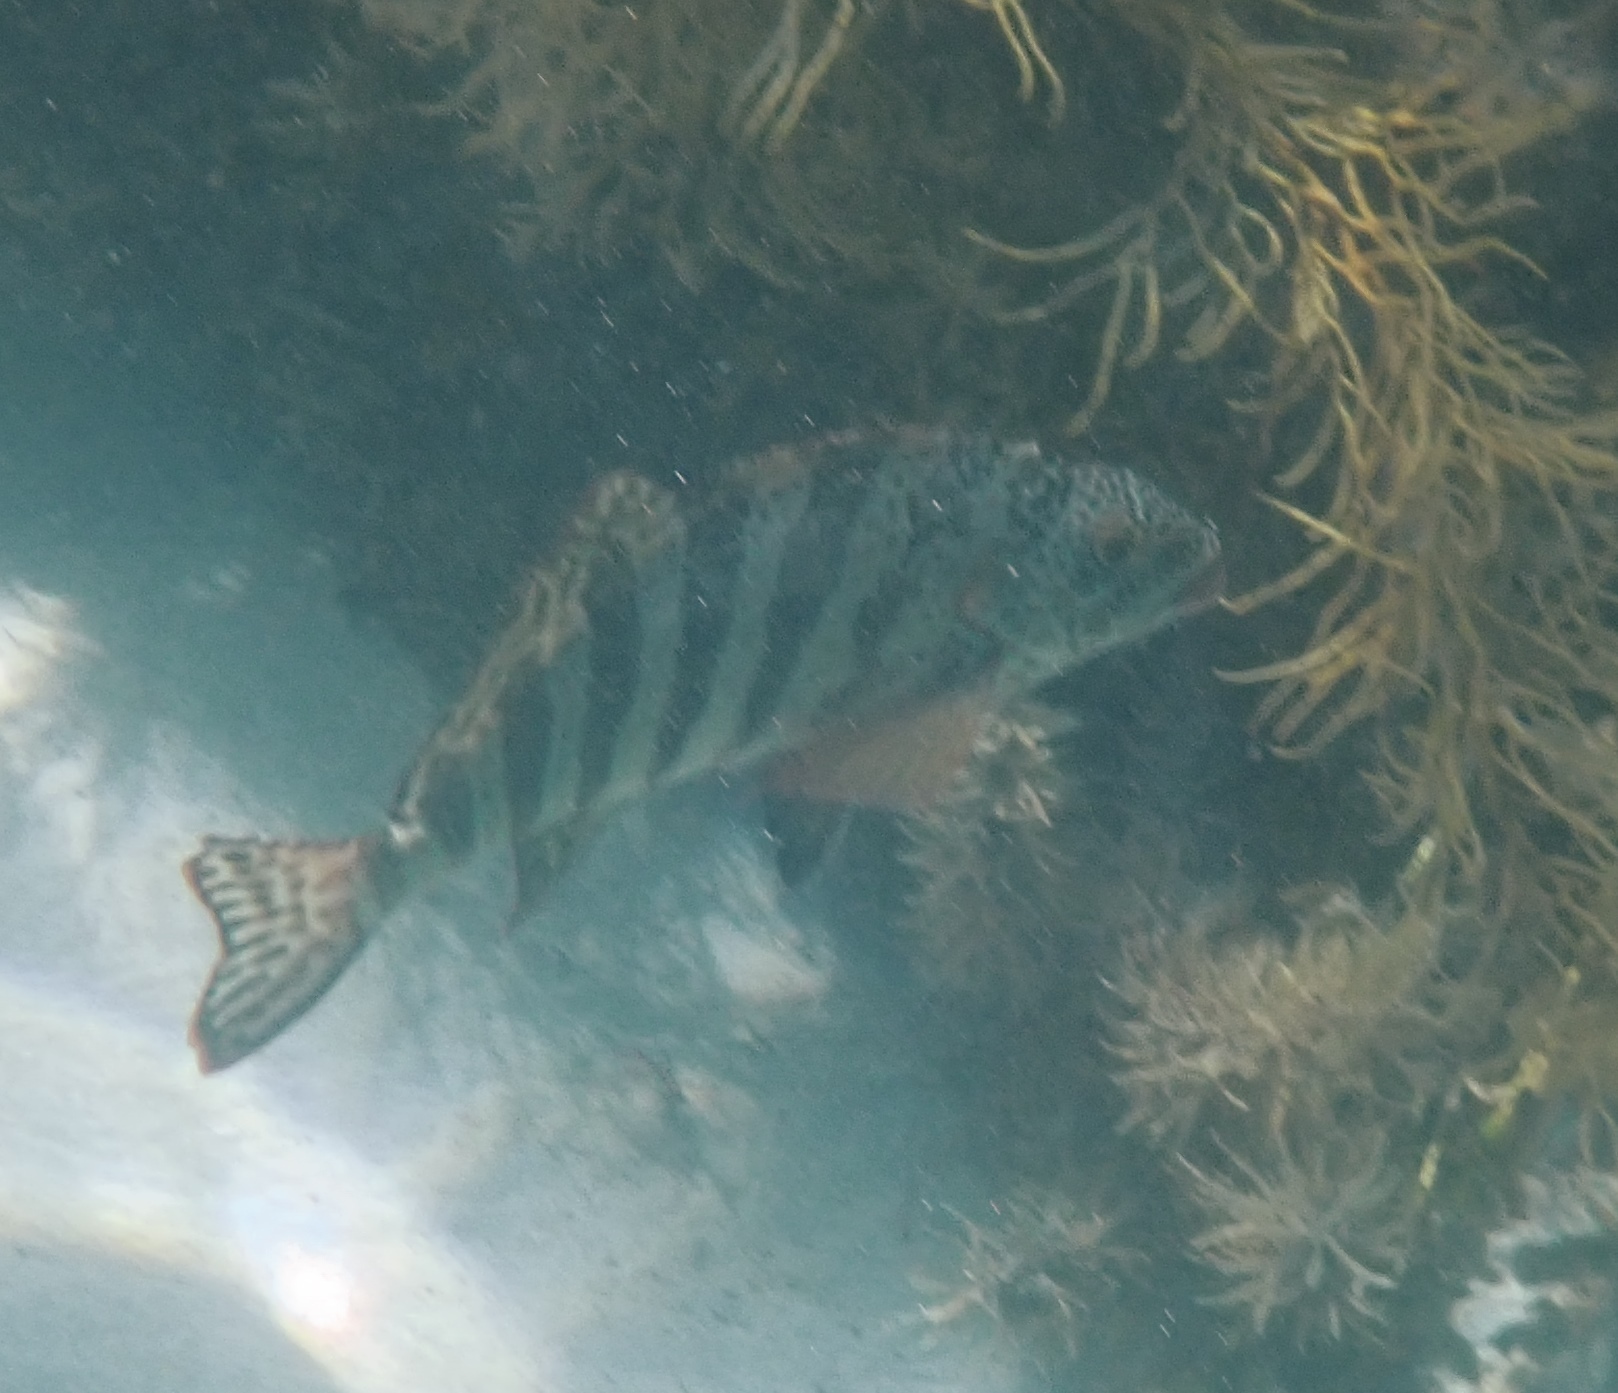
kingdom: Animalia
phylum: Chordata
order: Perciformes
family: Cheilodactylidae
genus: Cheilodactylus
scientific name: Cheilodactylus rubrolabiatus
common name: Redlip morwong
